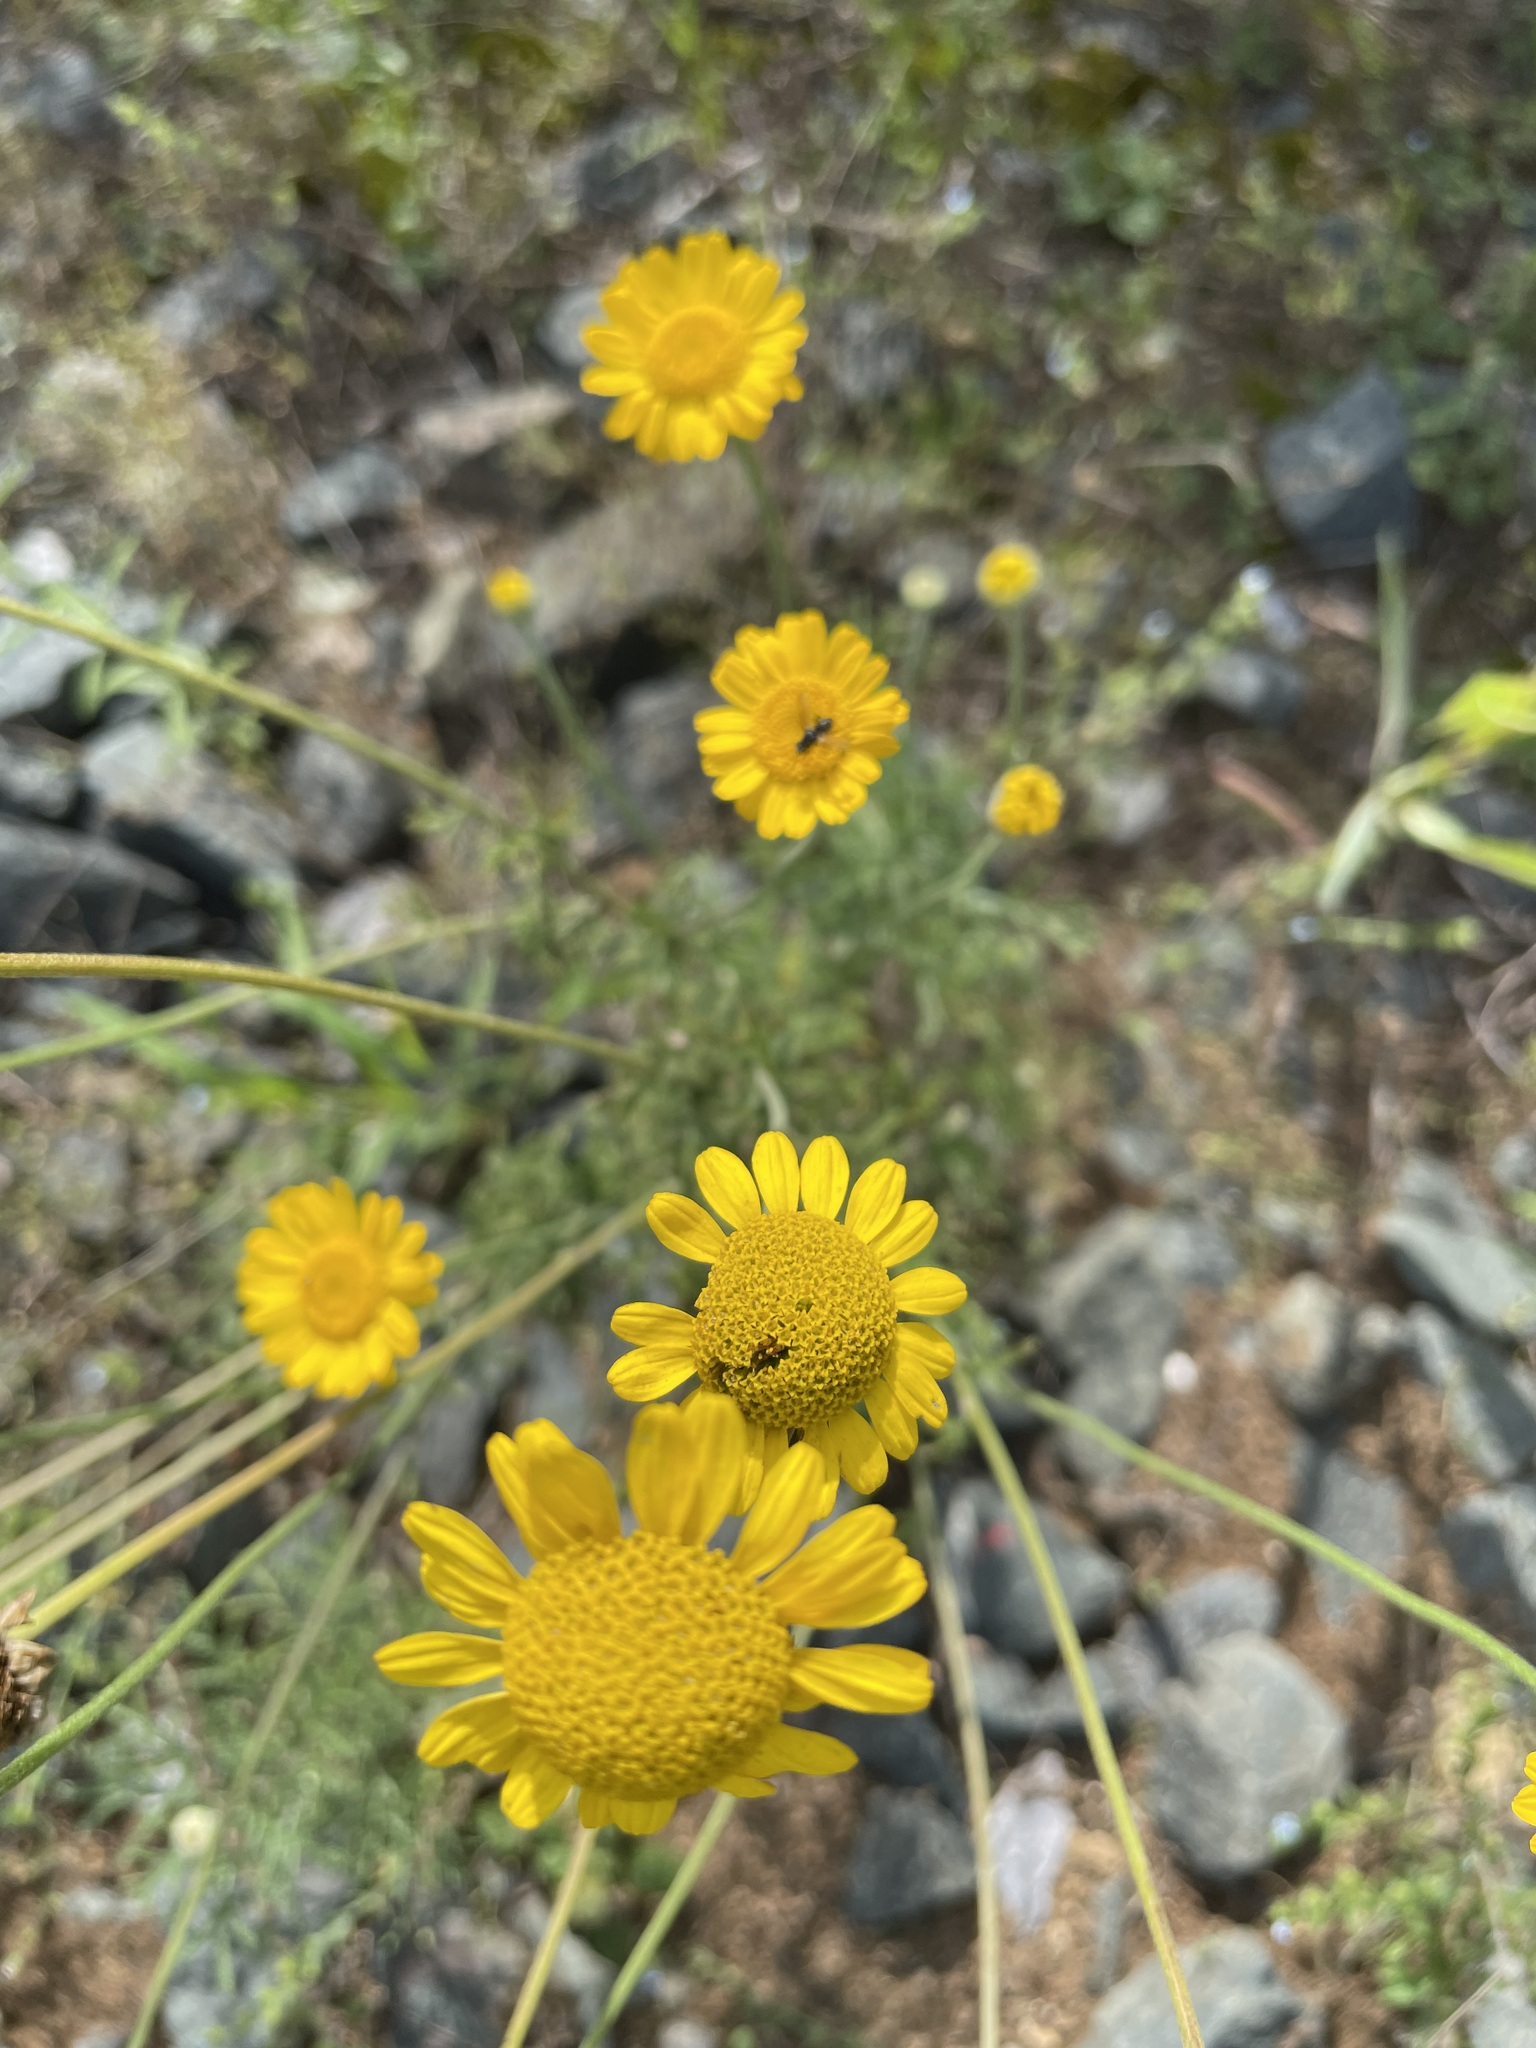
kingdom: Plantae
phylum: Tracheophyta
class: Magnoliopsida
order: Asterales
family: Asteraceae
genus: Cota
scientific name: Cota tinctoria
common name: Golden chamomile
